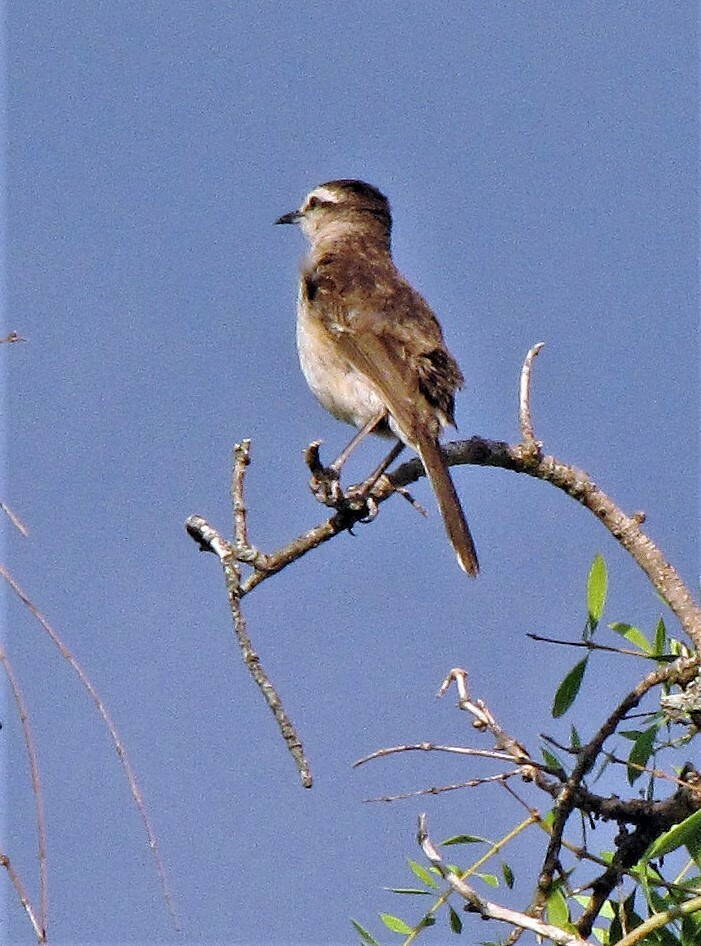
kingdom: Animalia
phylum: Chordata
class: Aves
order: Passeriformes
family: Mimidae
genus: Mimus
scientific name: Mimus saturninus
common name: Chalk-browed mockingbird
